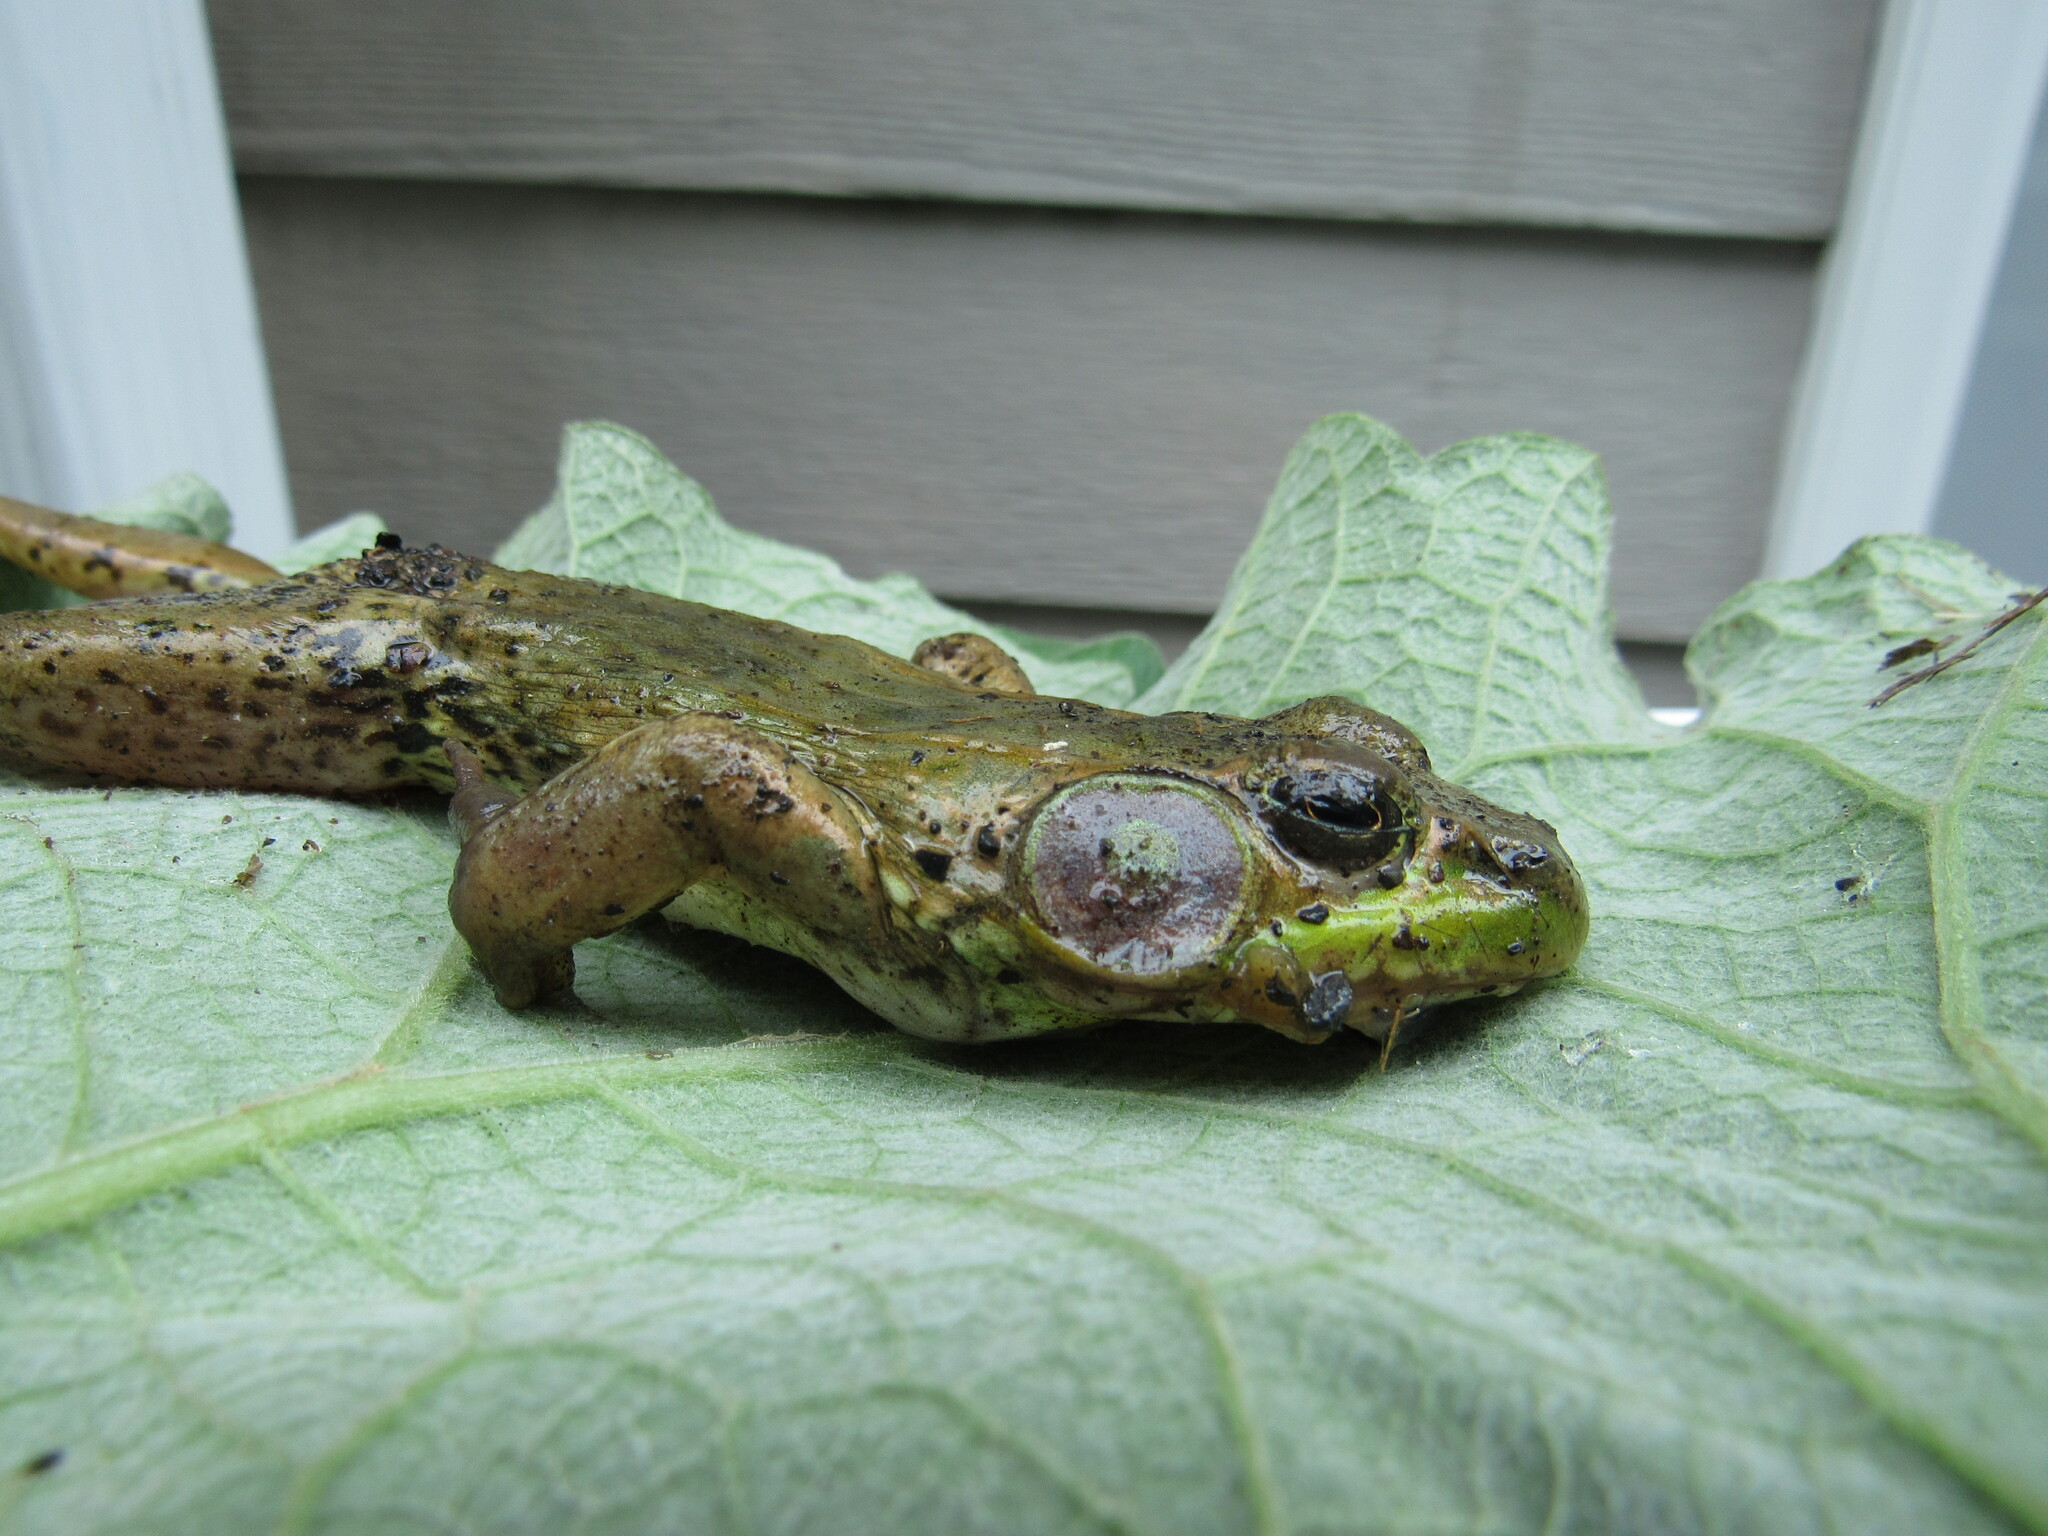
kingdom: Animalia
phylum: Chordata
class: Amphibia
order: Anura
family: Ranidae
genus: Lithobates
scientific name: Lithobates clamitans
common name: Green frog
